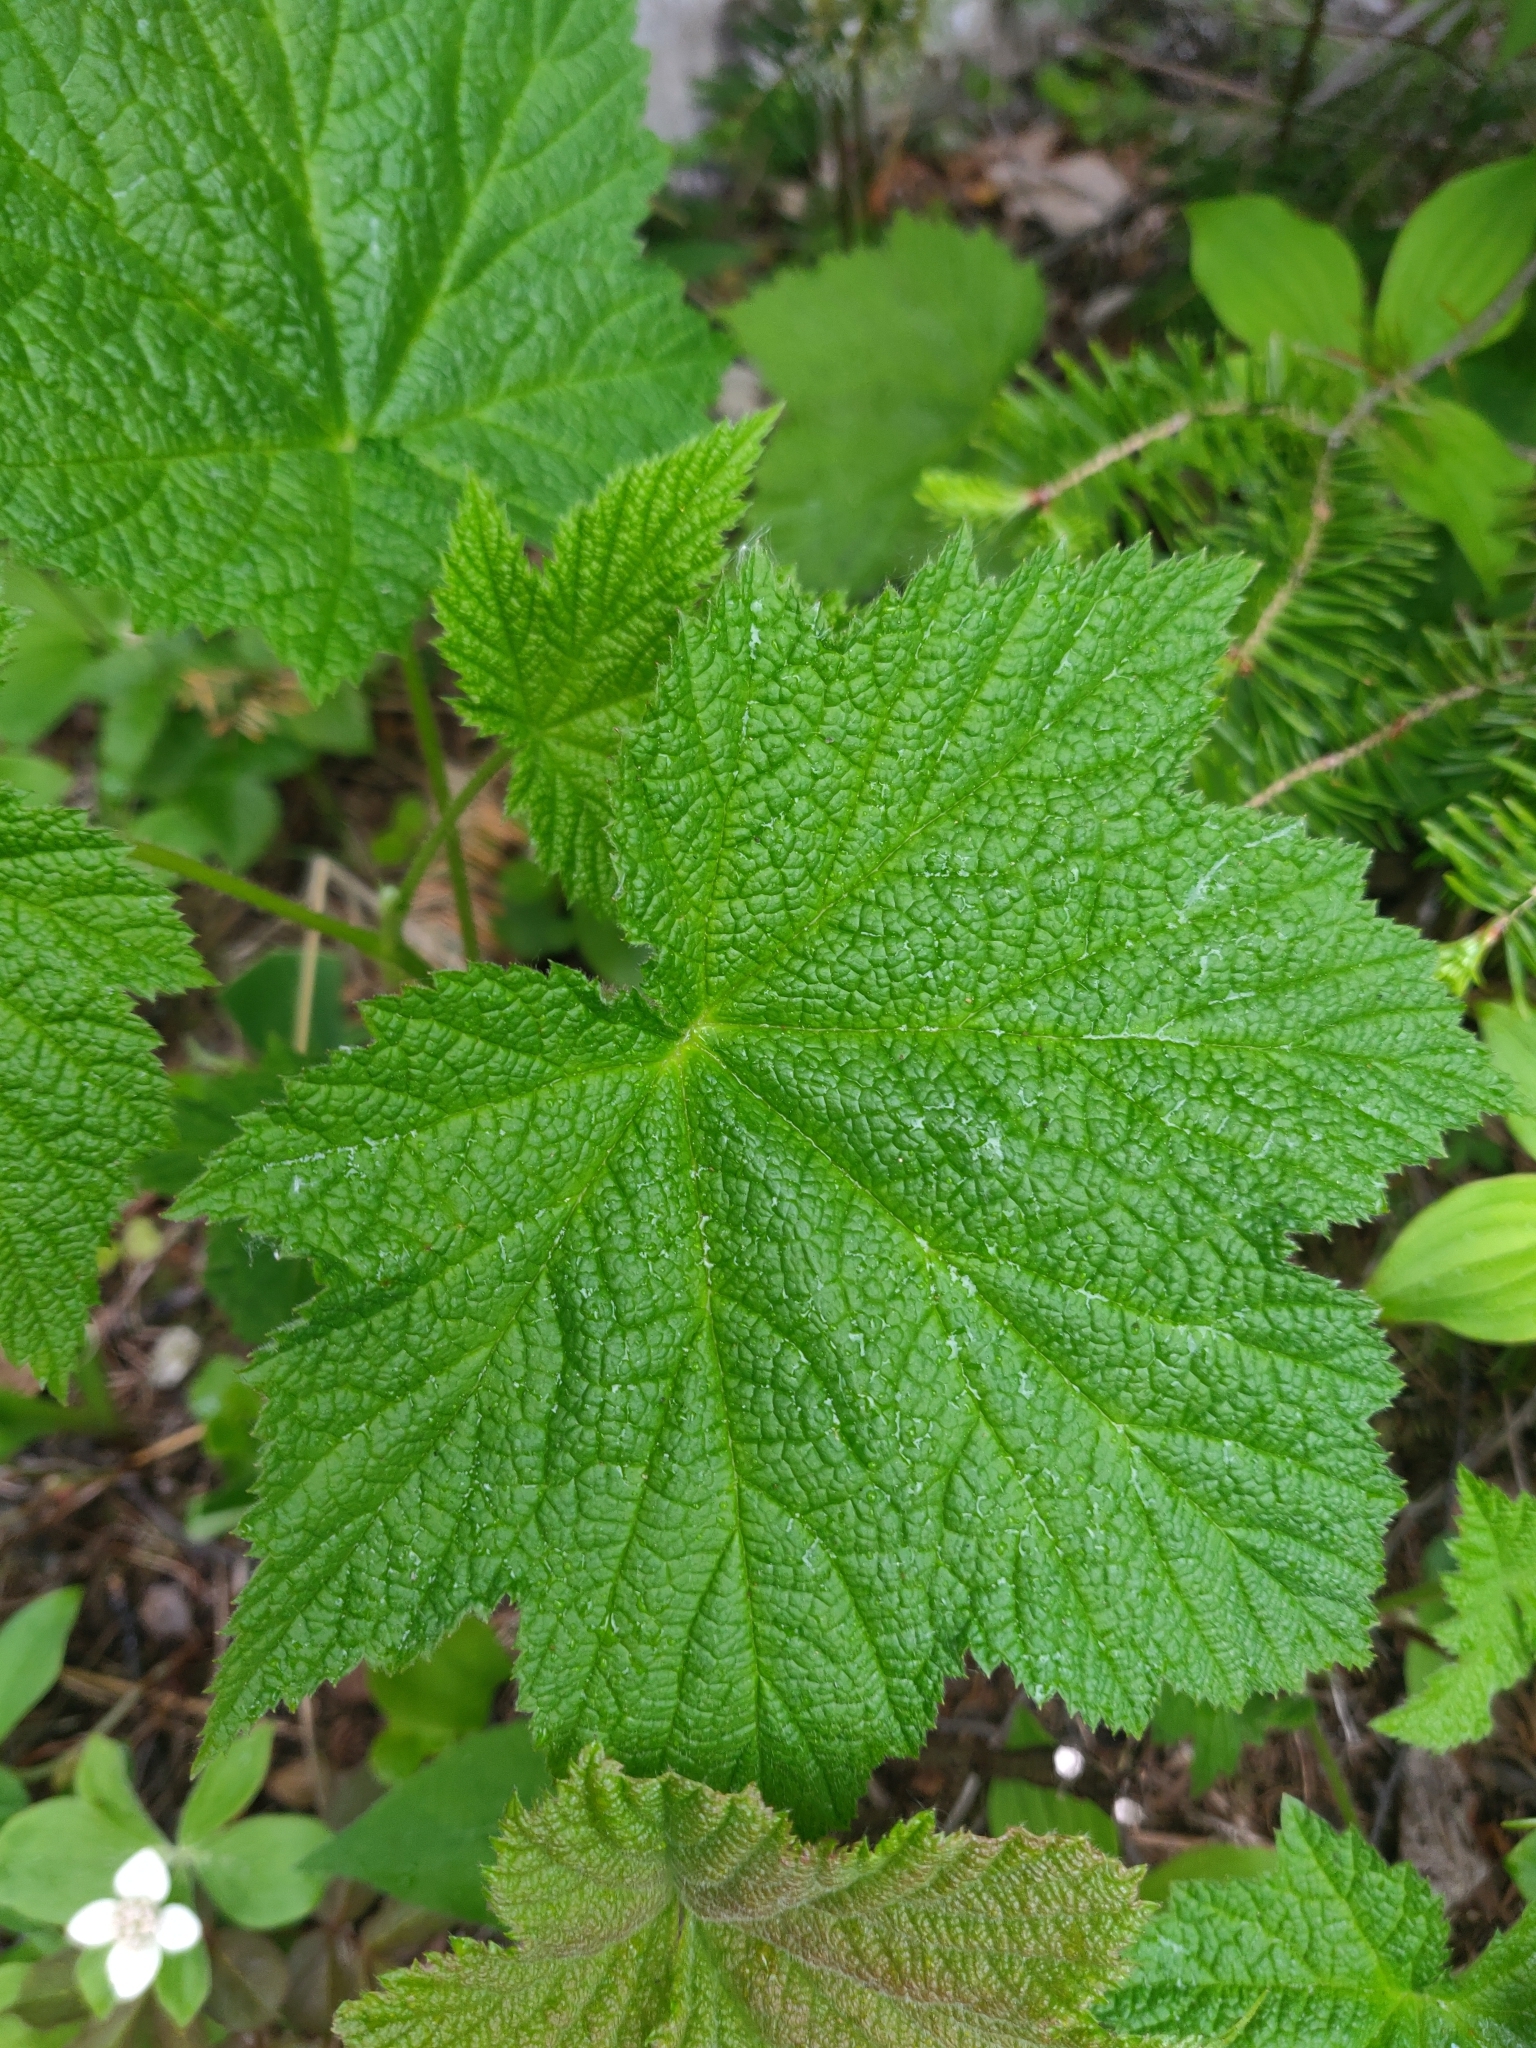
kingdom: Plantae
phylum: Tracheophyta
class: Magnoliopsida
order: Rosales
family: Rosaceae
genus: Rubus
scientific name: Rubus parviflorus
